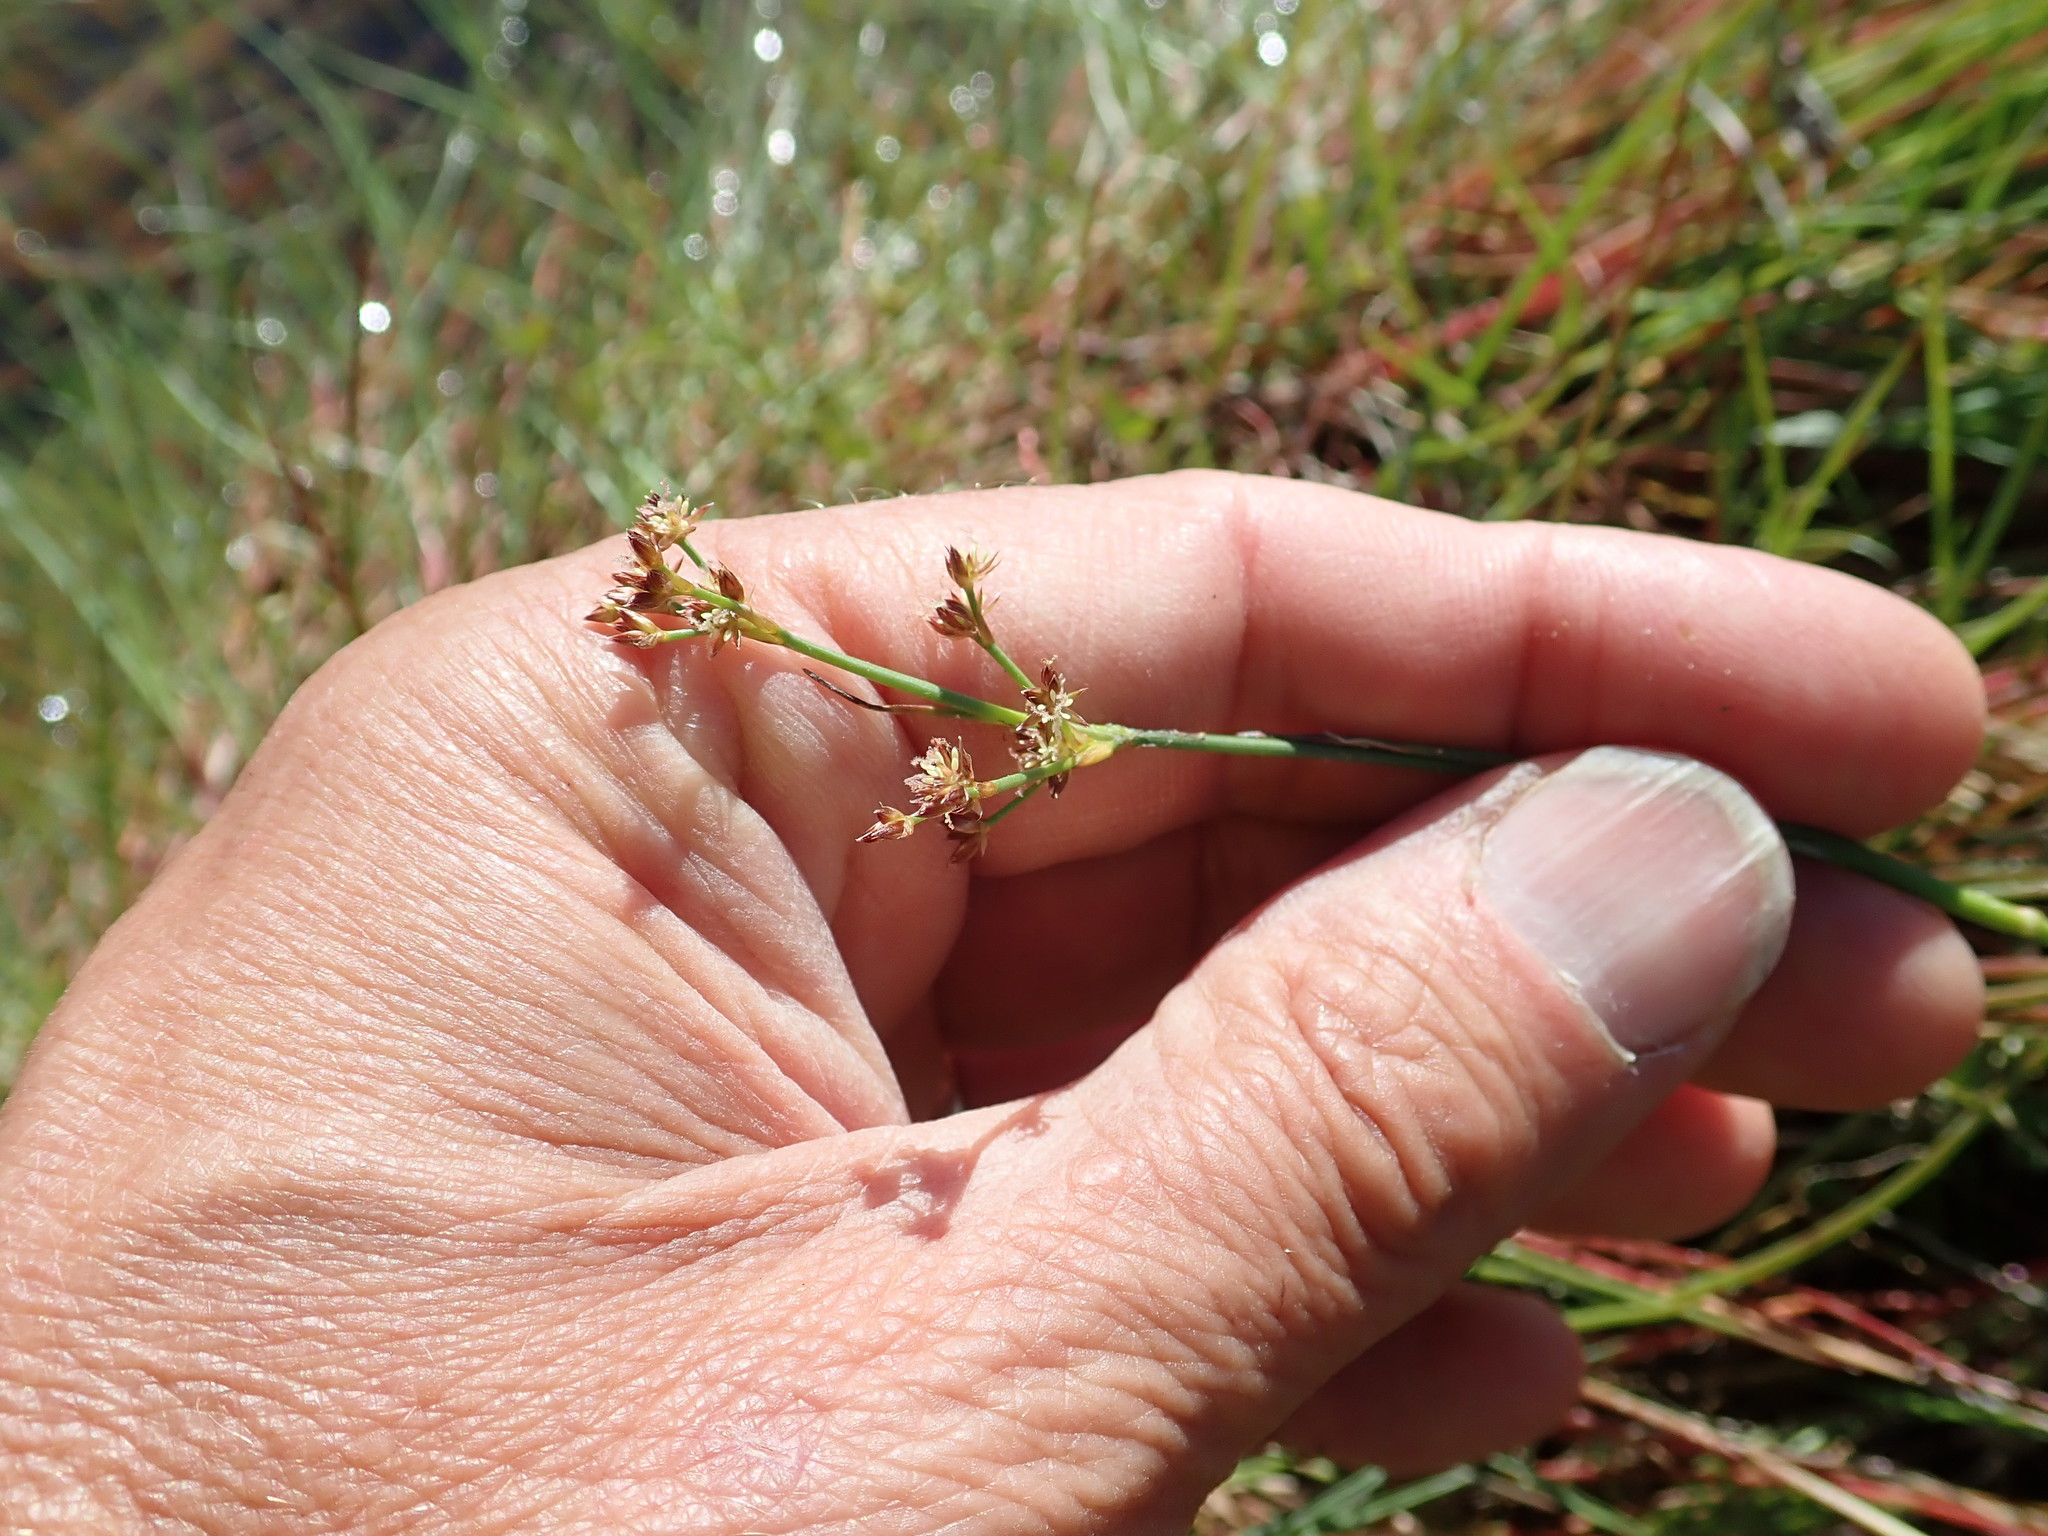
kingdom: Plantae
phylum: Tracheophyta
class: Liliopsida
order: Poales
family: Juncaceae
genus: Juncus
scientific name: Juncus articulatus
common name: Jointed rush
